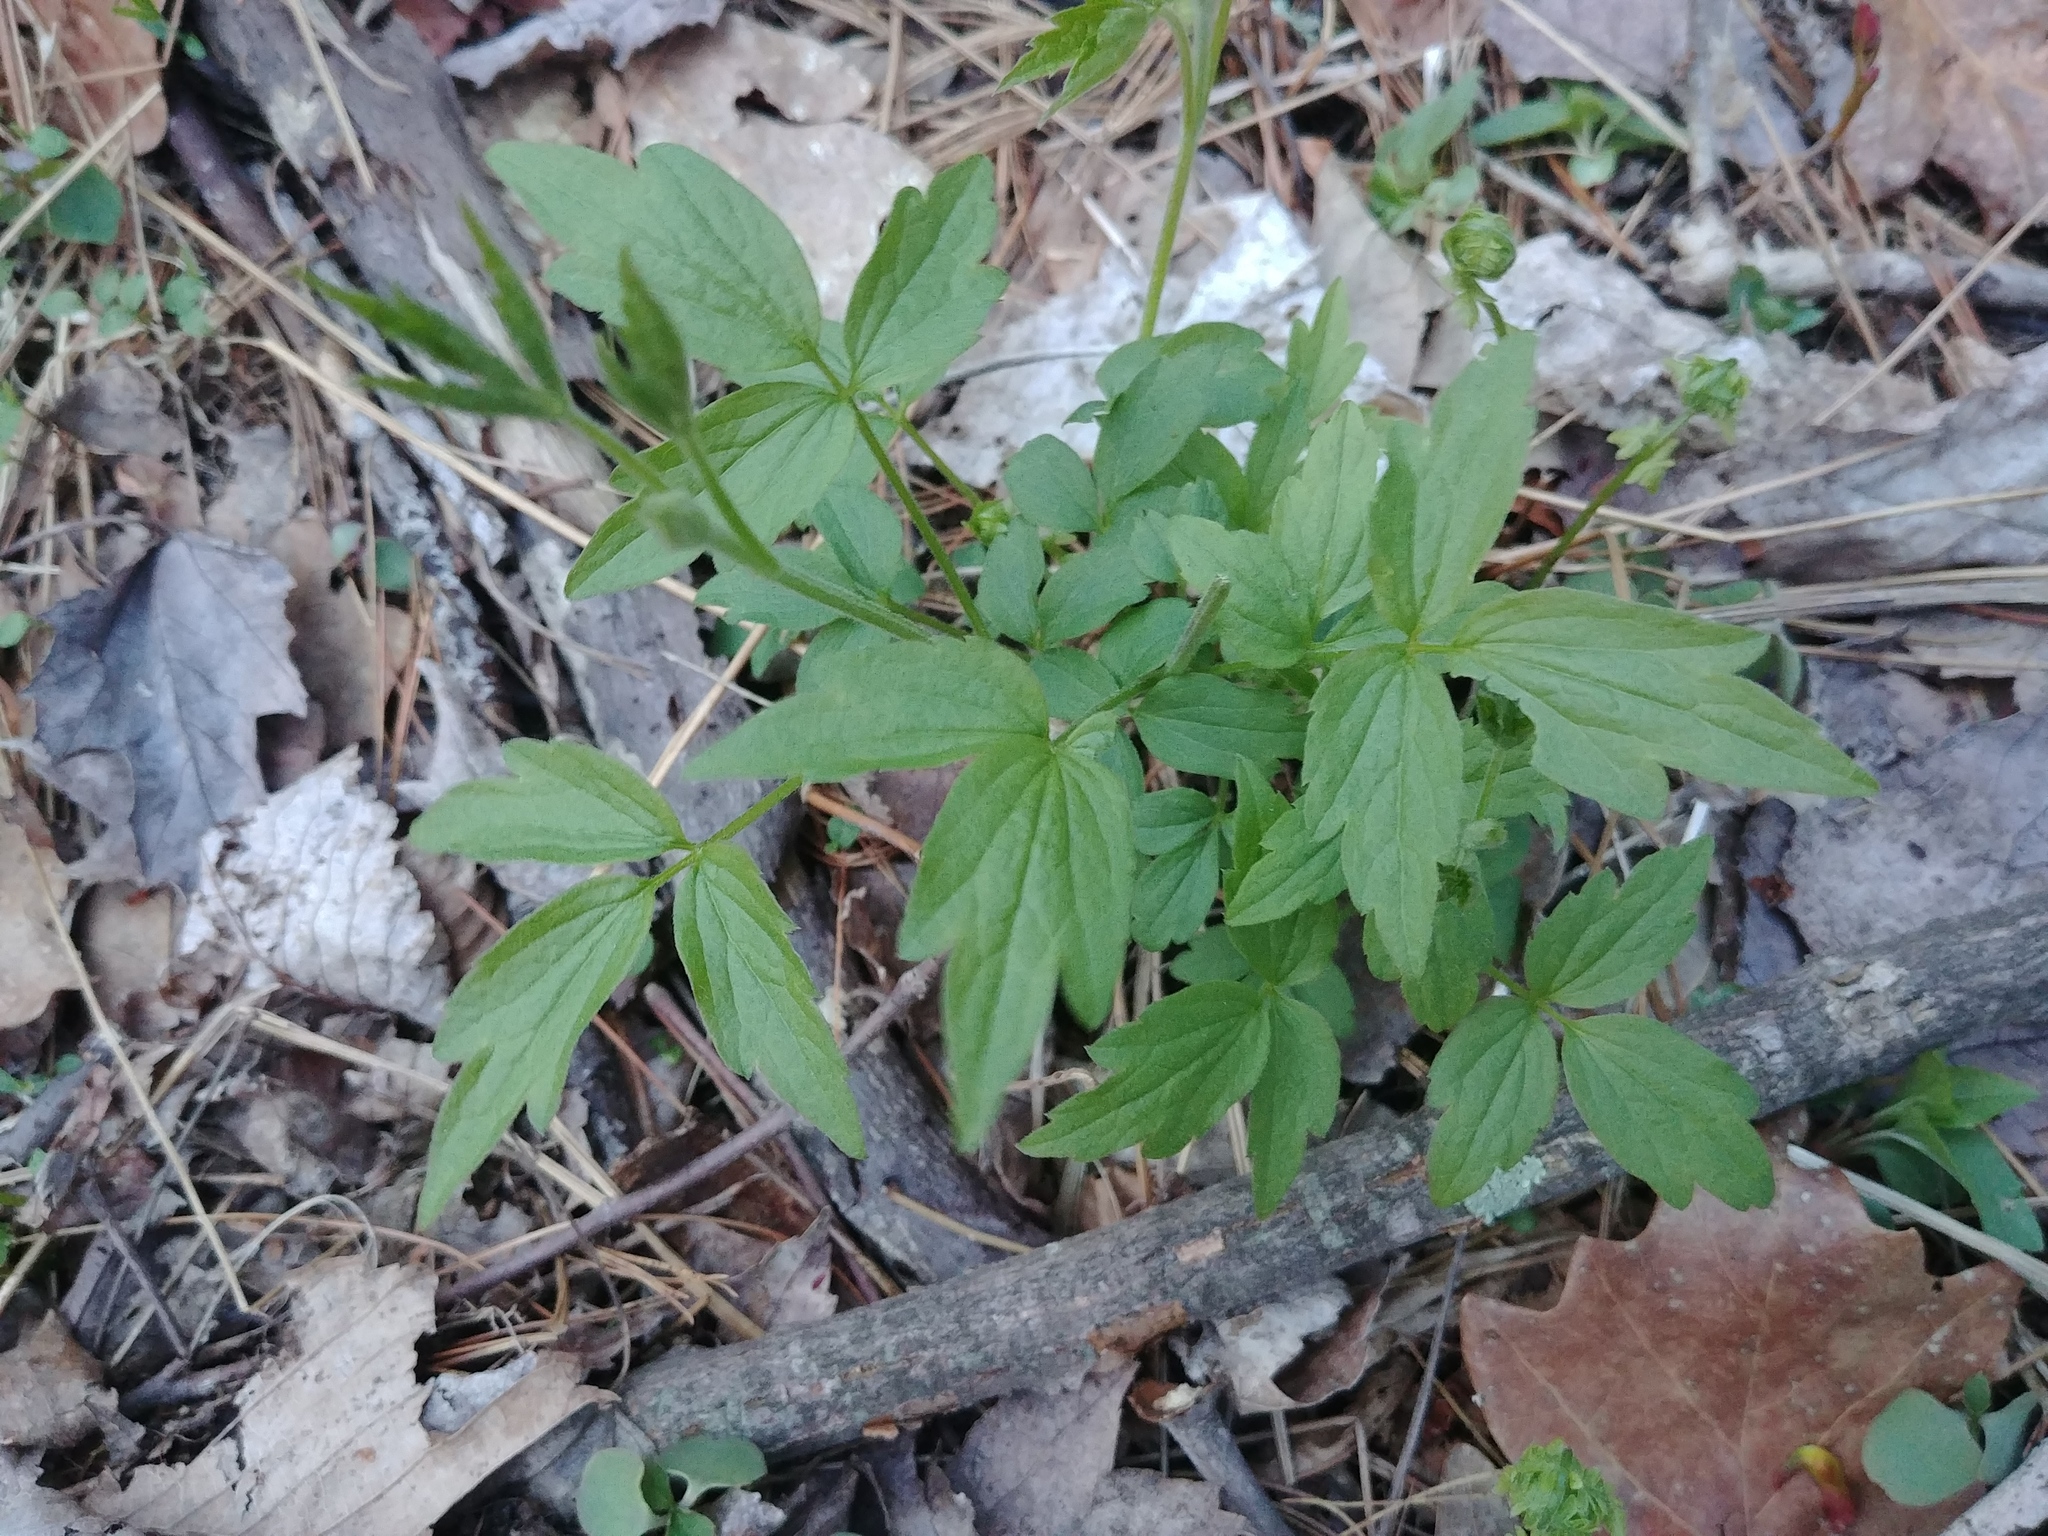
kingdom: Plantae
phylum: Tracheophyta
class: Magnoliopsida
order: Ranunculales
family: Ranunculaceae
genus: Clematis
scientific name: Clematis virginiana
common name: Virgin's-bower
